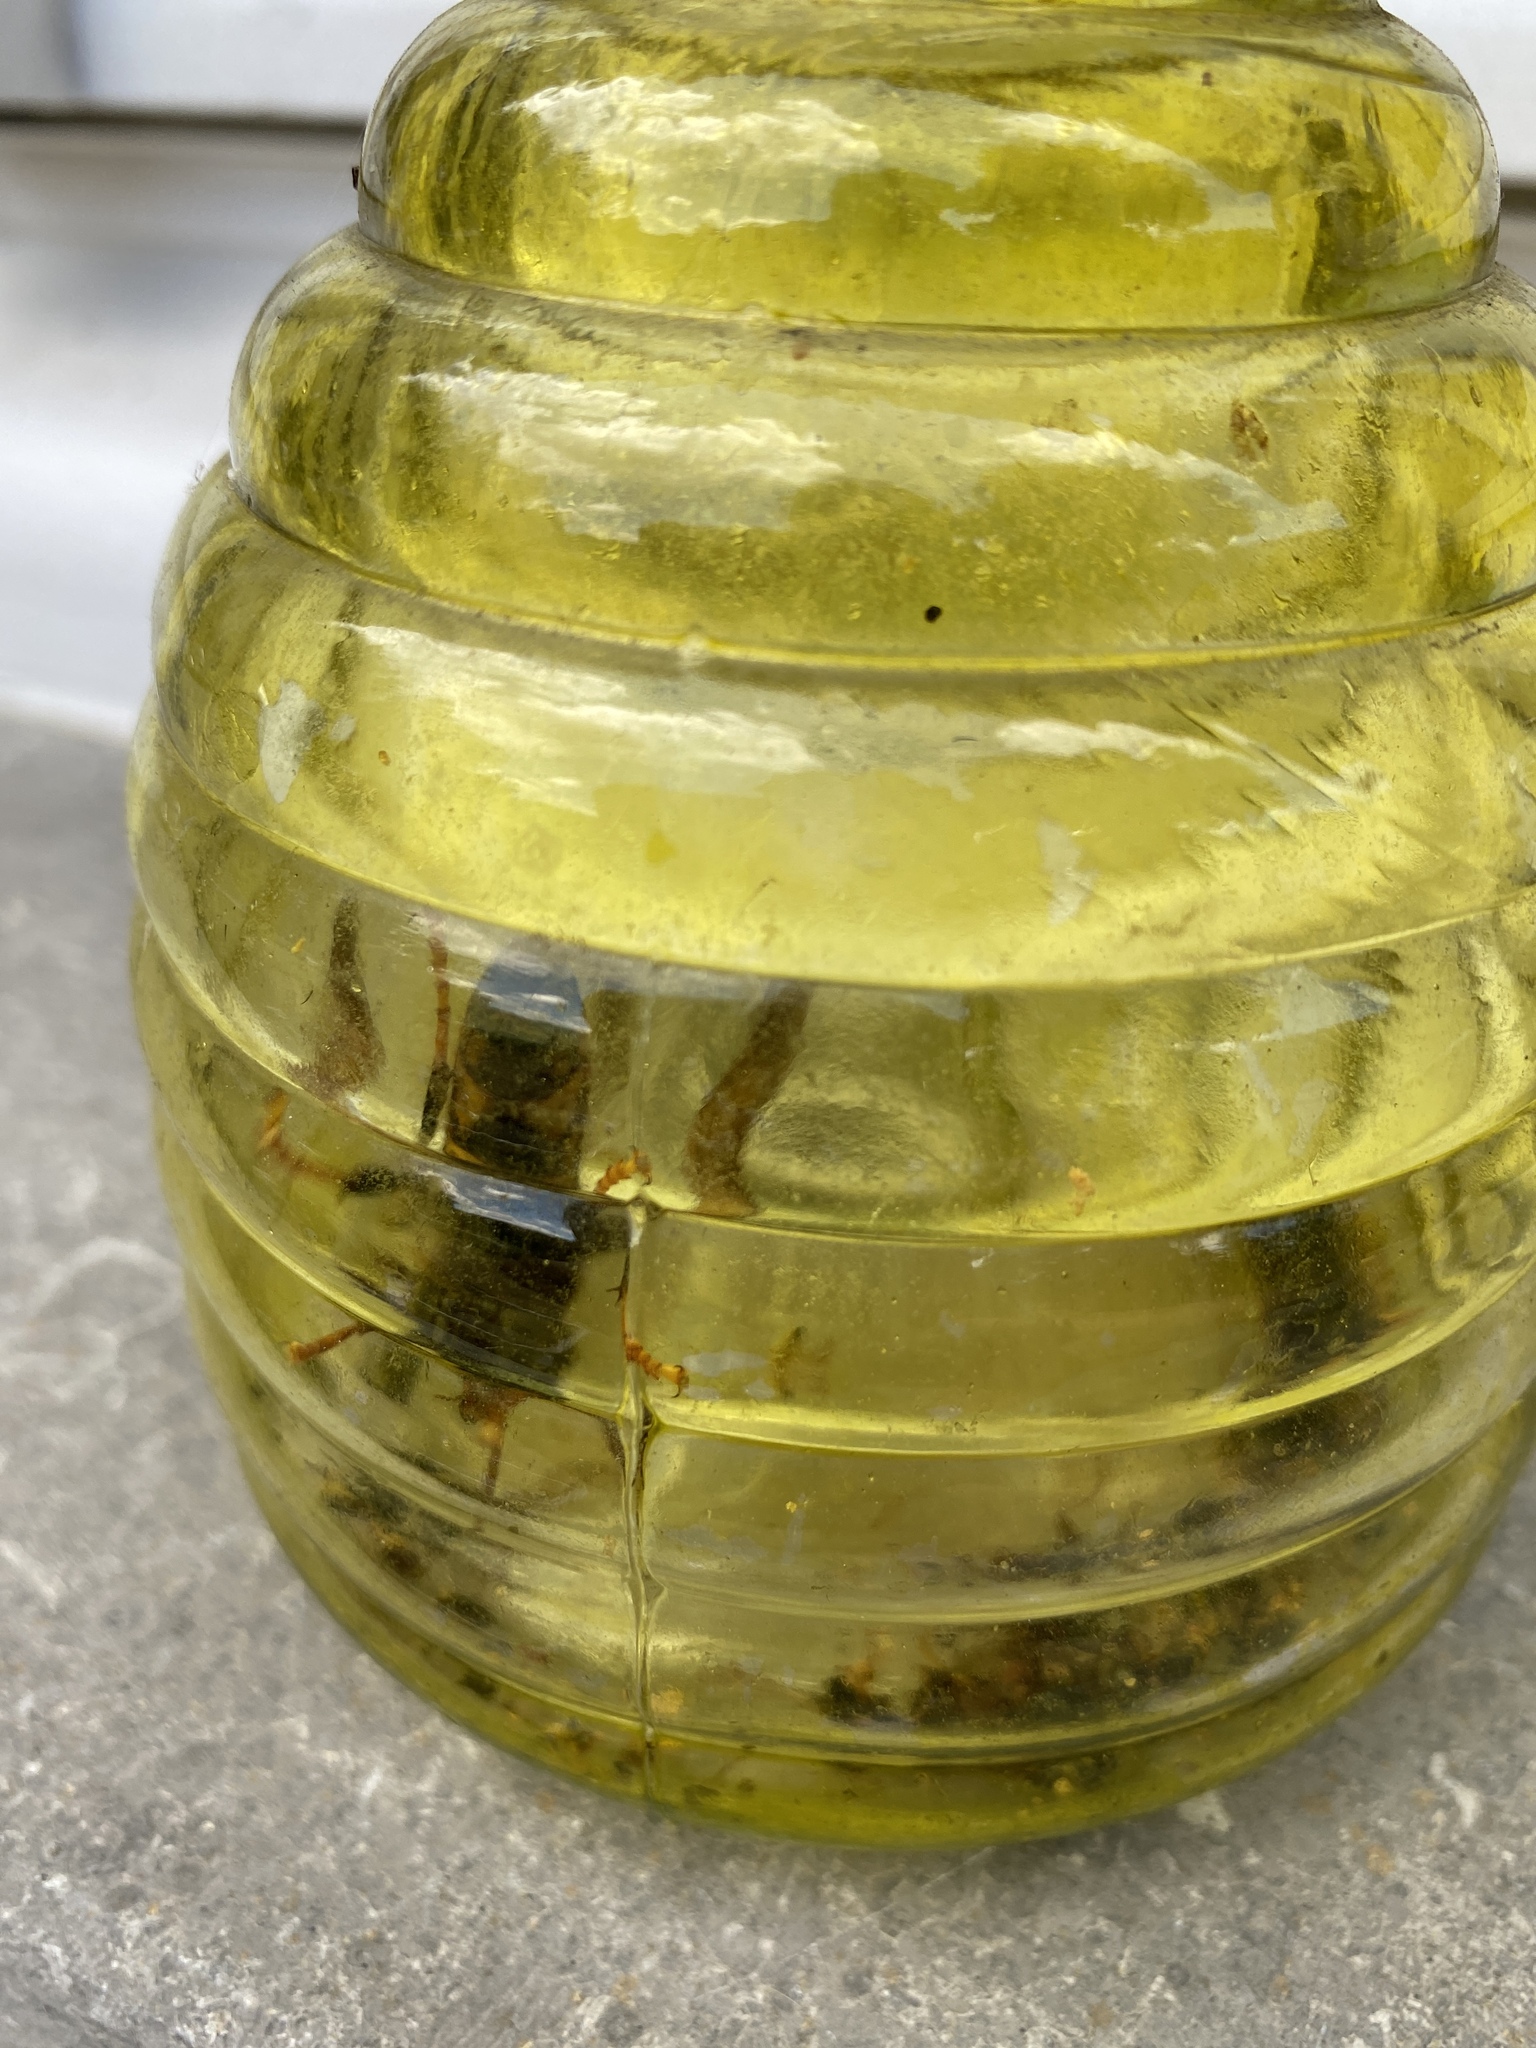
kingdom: Animalia
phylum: Arthropoda
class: Insecta
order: Hymenoptera
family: Vespidae
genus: Vespa
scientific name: Vespa velutina
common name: Asian hornet
